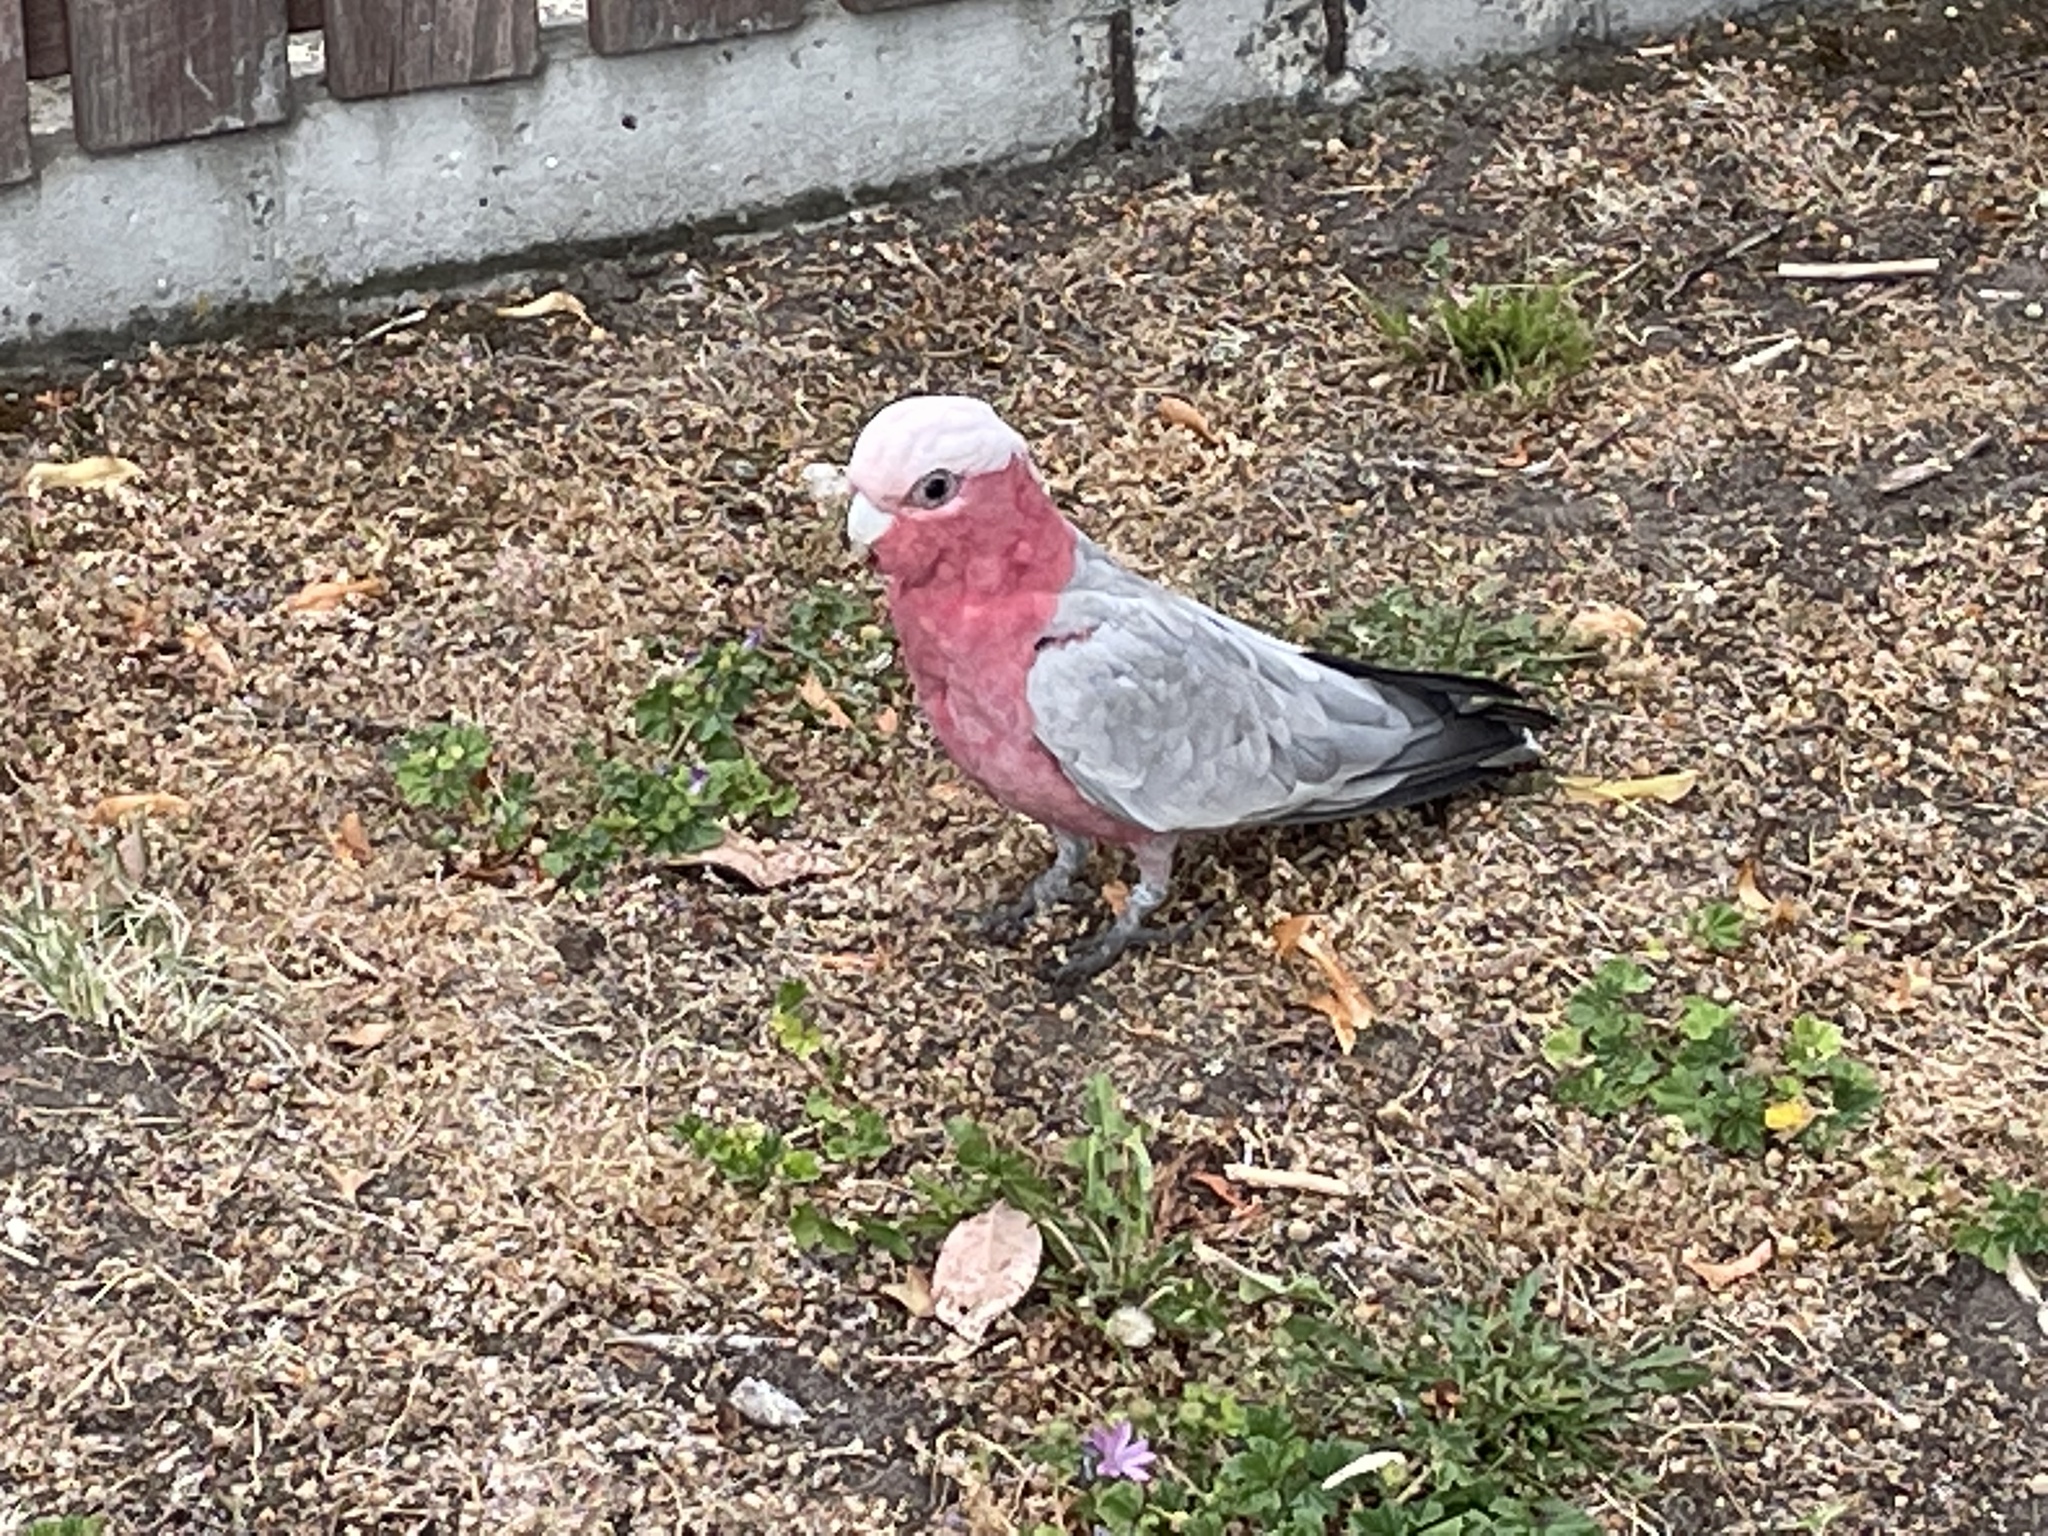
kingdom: Animalia
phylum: Chordata
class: Aves
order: Psittaciformes
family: Psittacidae
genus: Eolophus
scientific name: Eolophus roseicapilla
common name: Galah
